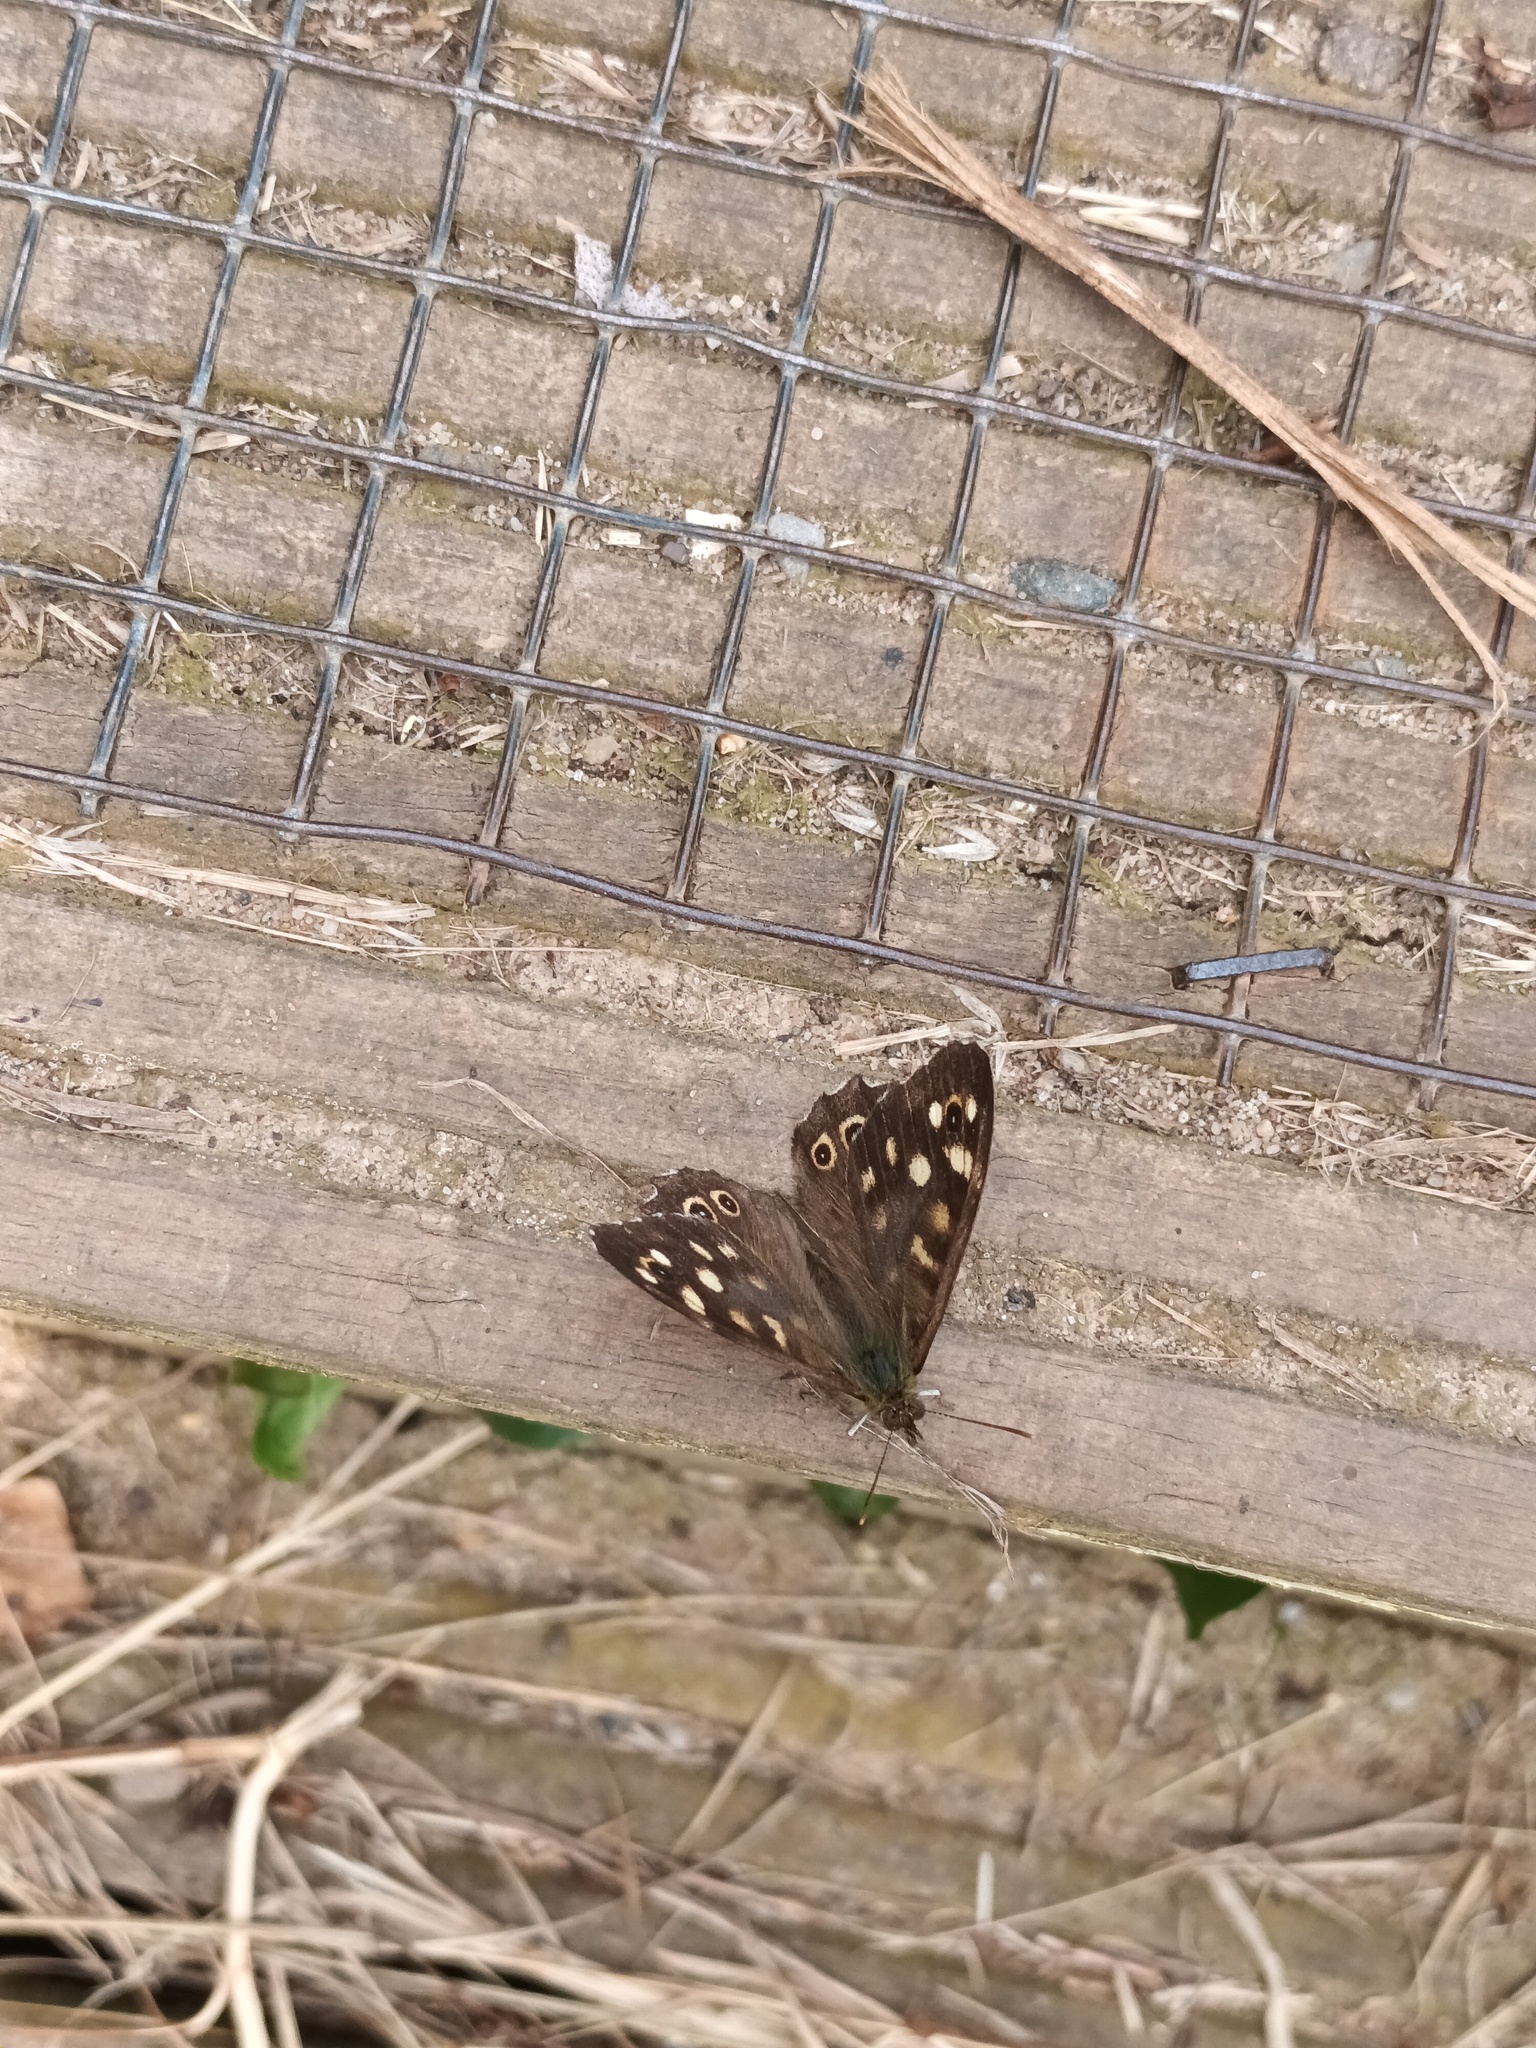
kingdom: Animalia
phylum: Arthropoda
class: Insecta
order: Lepidoptera
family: Nymphalidae
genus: Pararge
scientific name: Pararge aegeria
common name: Speckled wood
